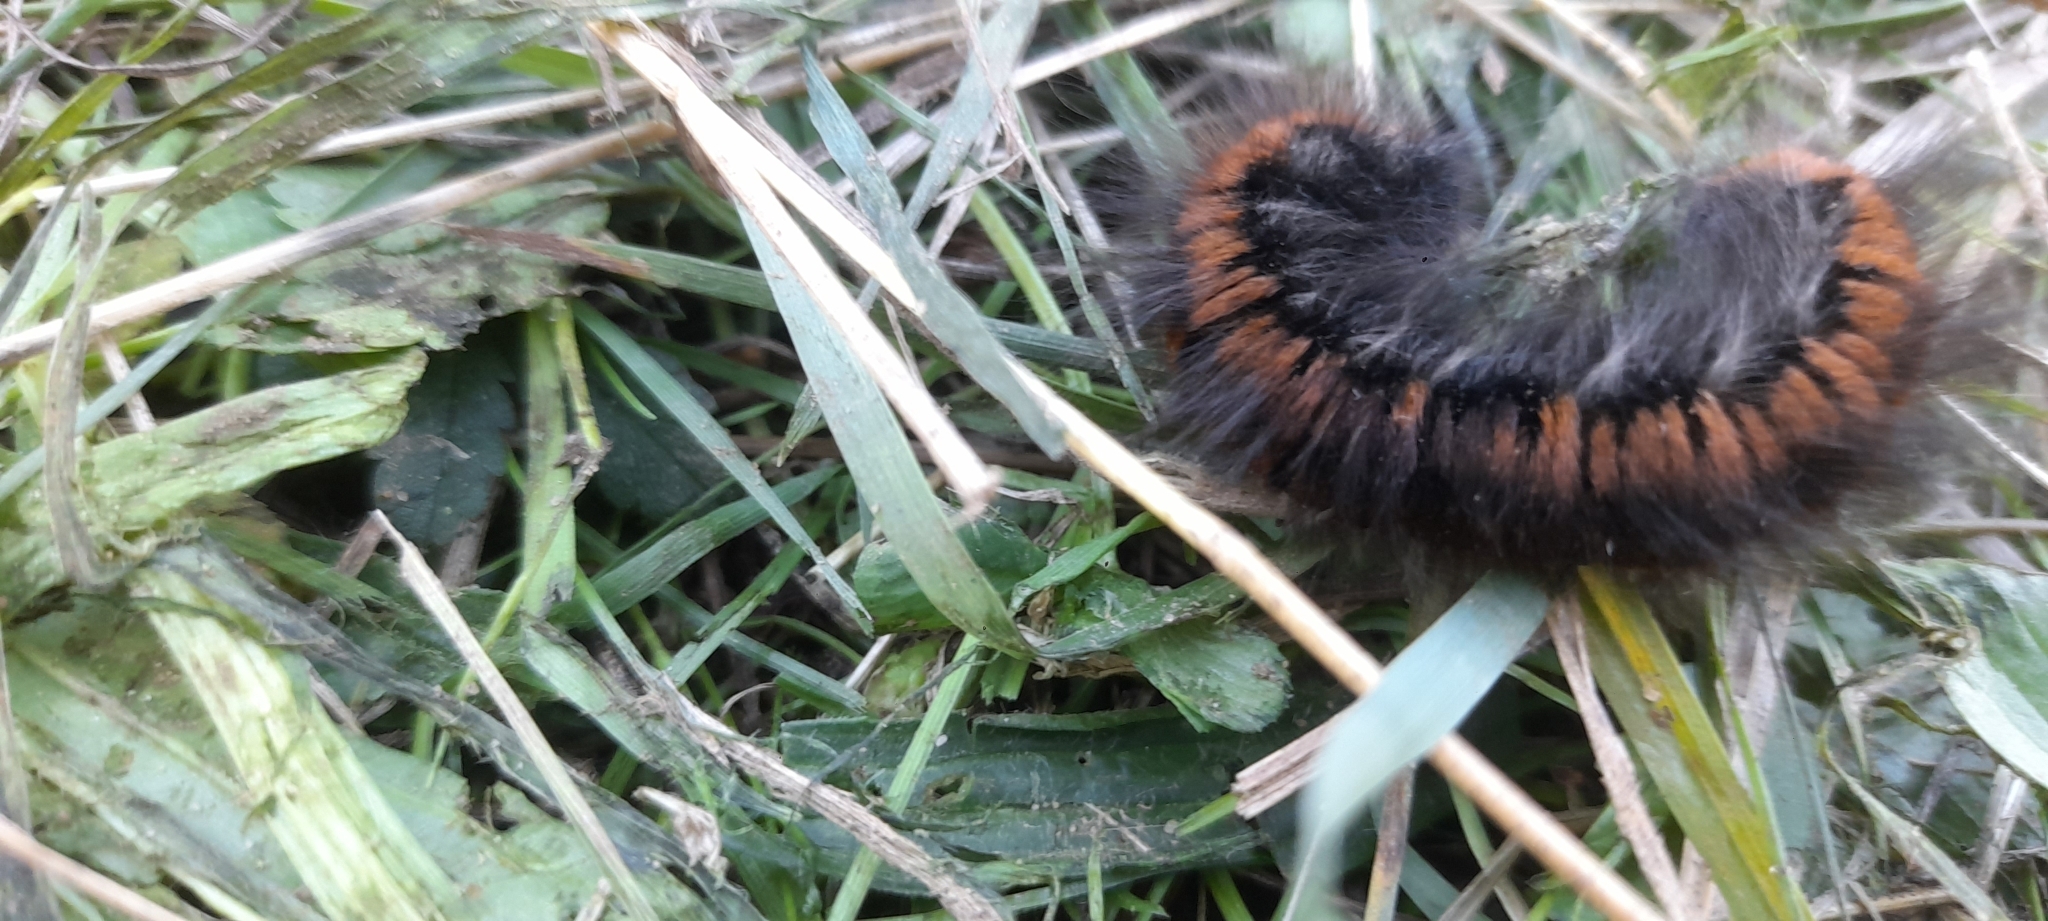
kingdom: Animalia
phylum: Arthropoda
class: Insecta
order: Lepidoptera
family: Lasiocampidae
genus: Macrothylacia
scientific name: Macrothylacia rubi
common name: Fox moth
